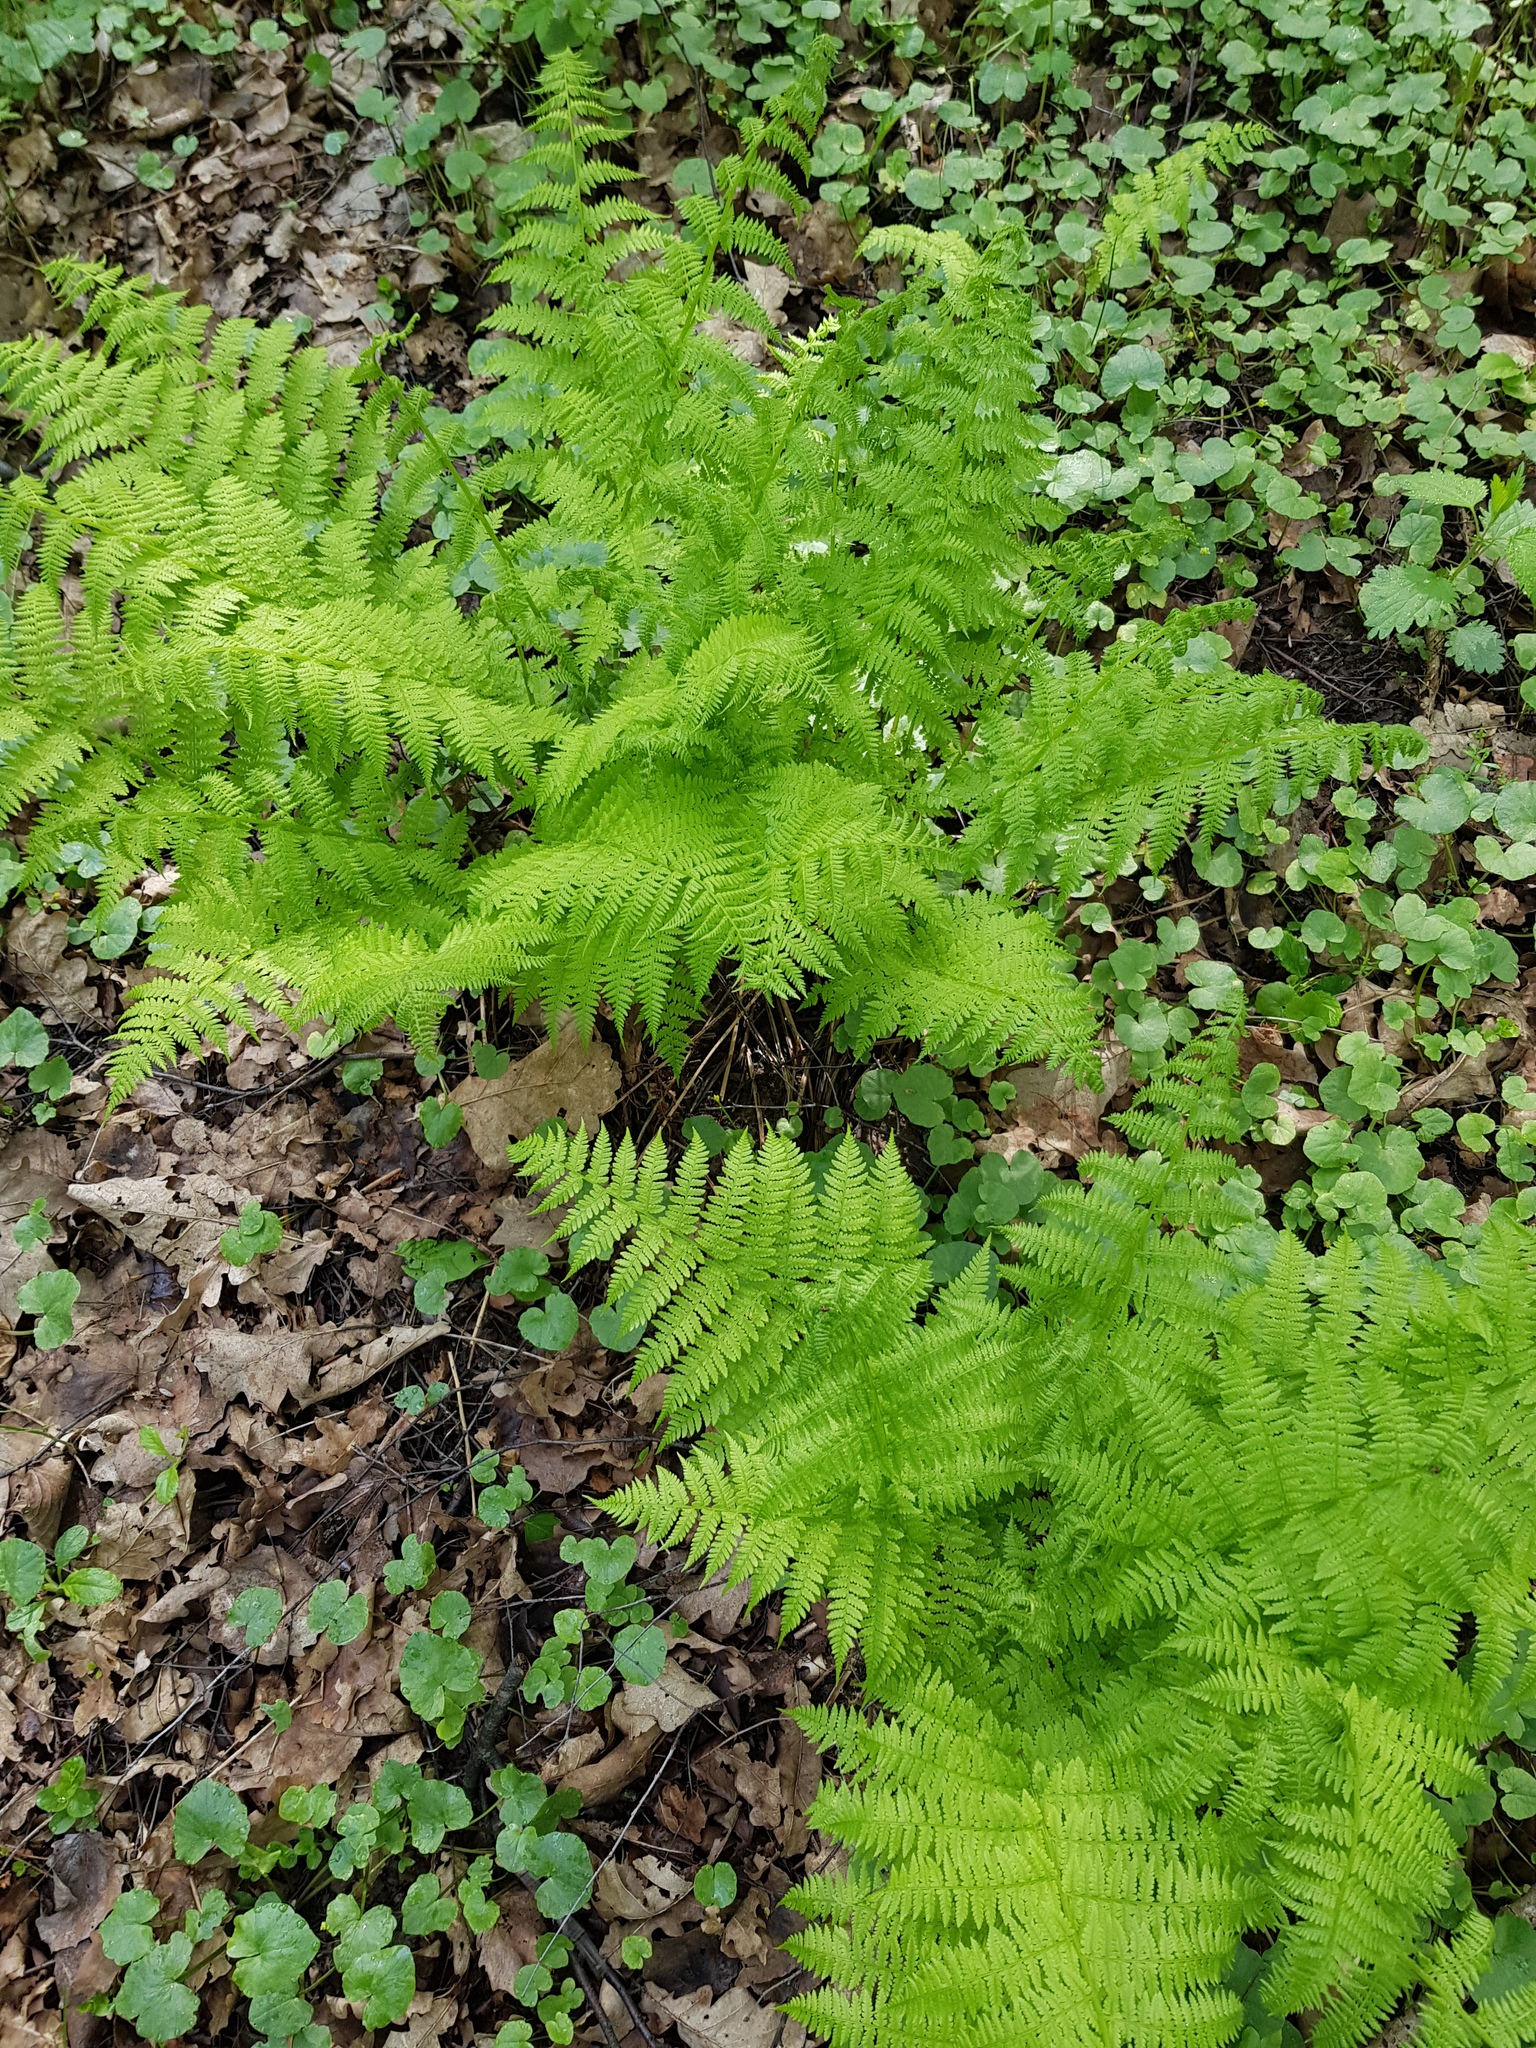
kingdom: Plantae
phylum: Tracheophyta
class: Polypodiopsida
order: Polypodiales
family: Athyriaceae
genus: Athyrium
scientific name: Athyrium filix-femina
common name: Lady fern
